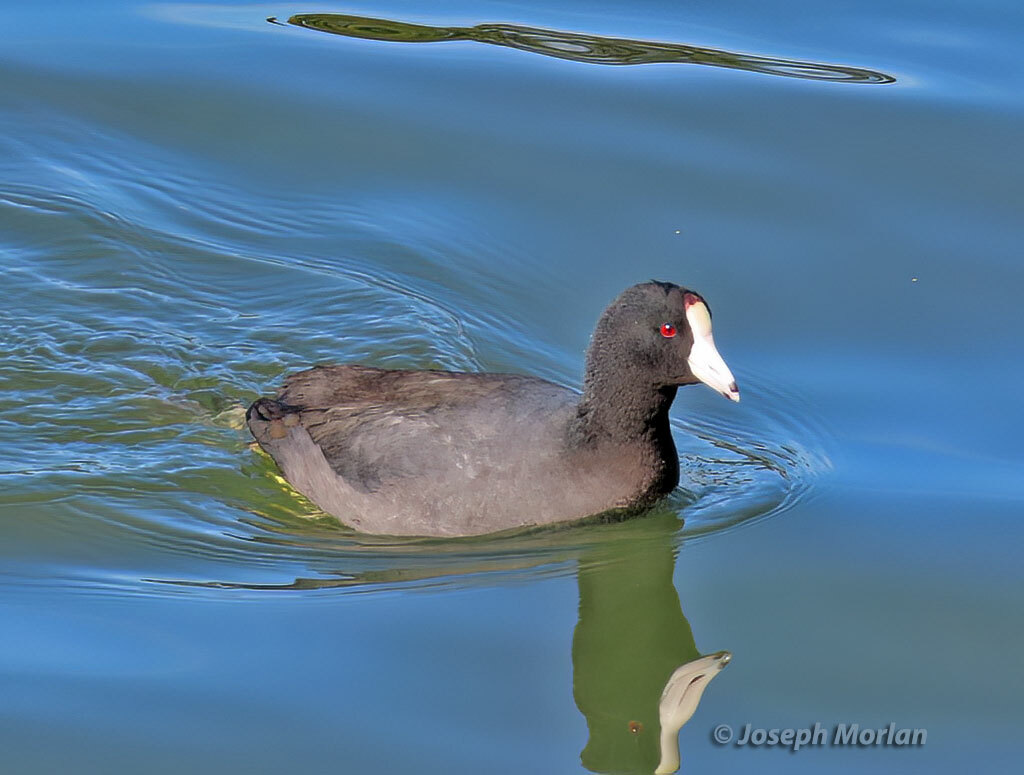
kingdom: Animalia
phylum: Chordata
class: Aves
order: Gruiformes
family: Rallidae
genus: Fulica
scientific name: Fulica americana
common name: American coot
